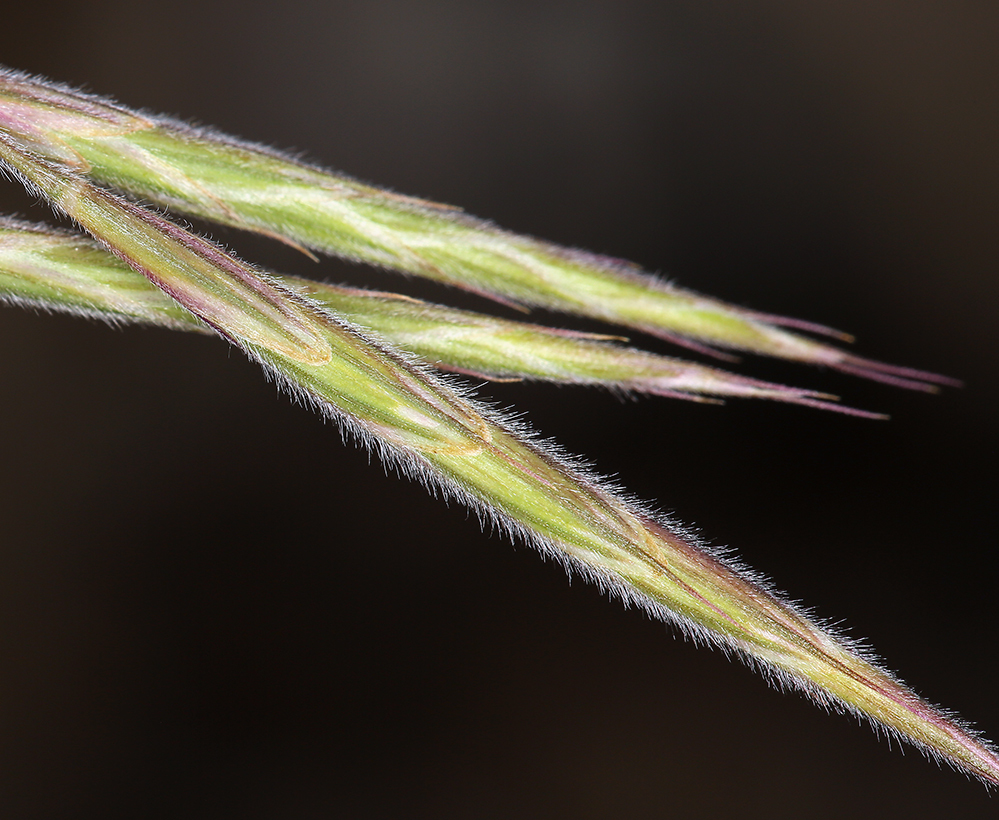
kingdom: Plantae
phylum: Tracheophyta
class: Liliopsida
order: Poales
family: Poaceae
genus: Bromus
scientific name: Bromus porteri
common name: Nodding brome
